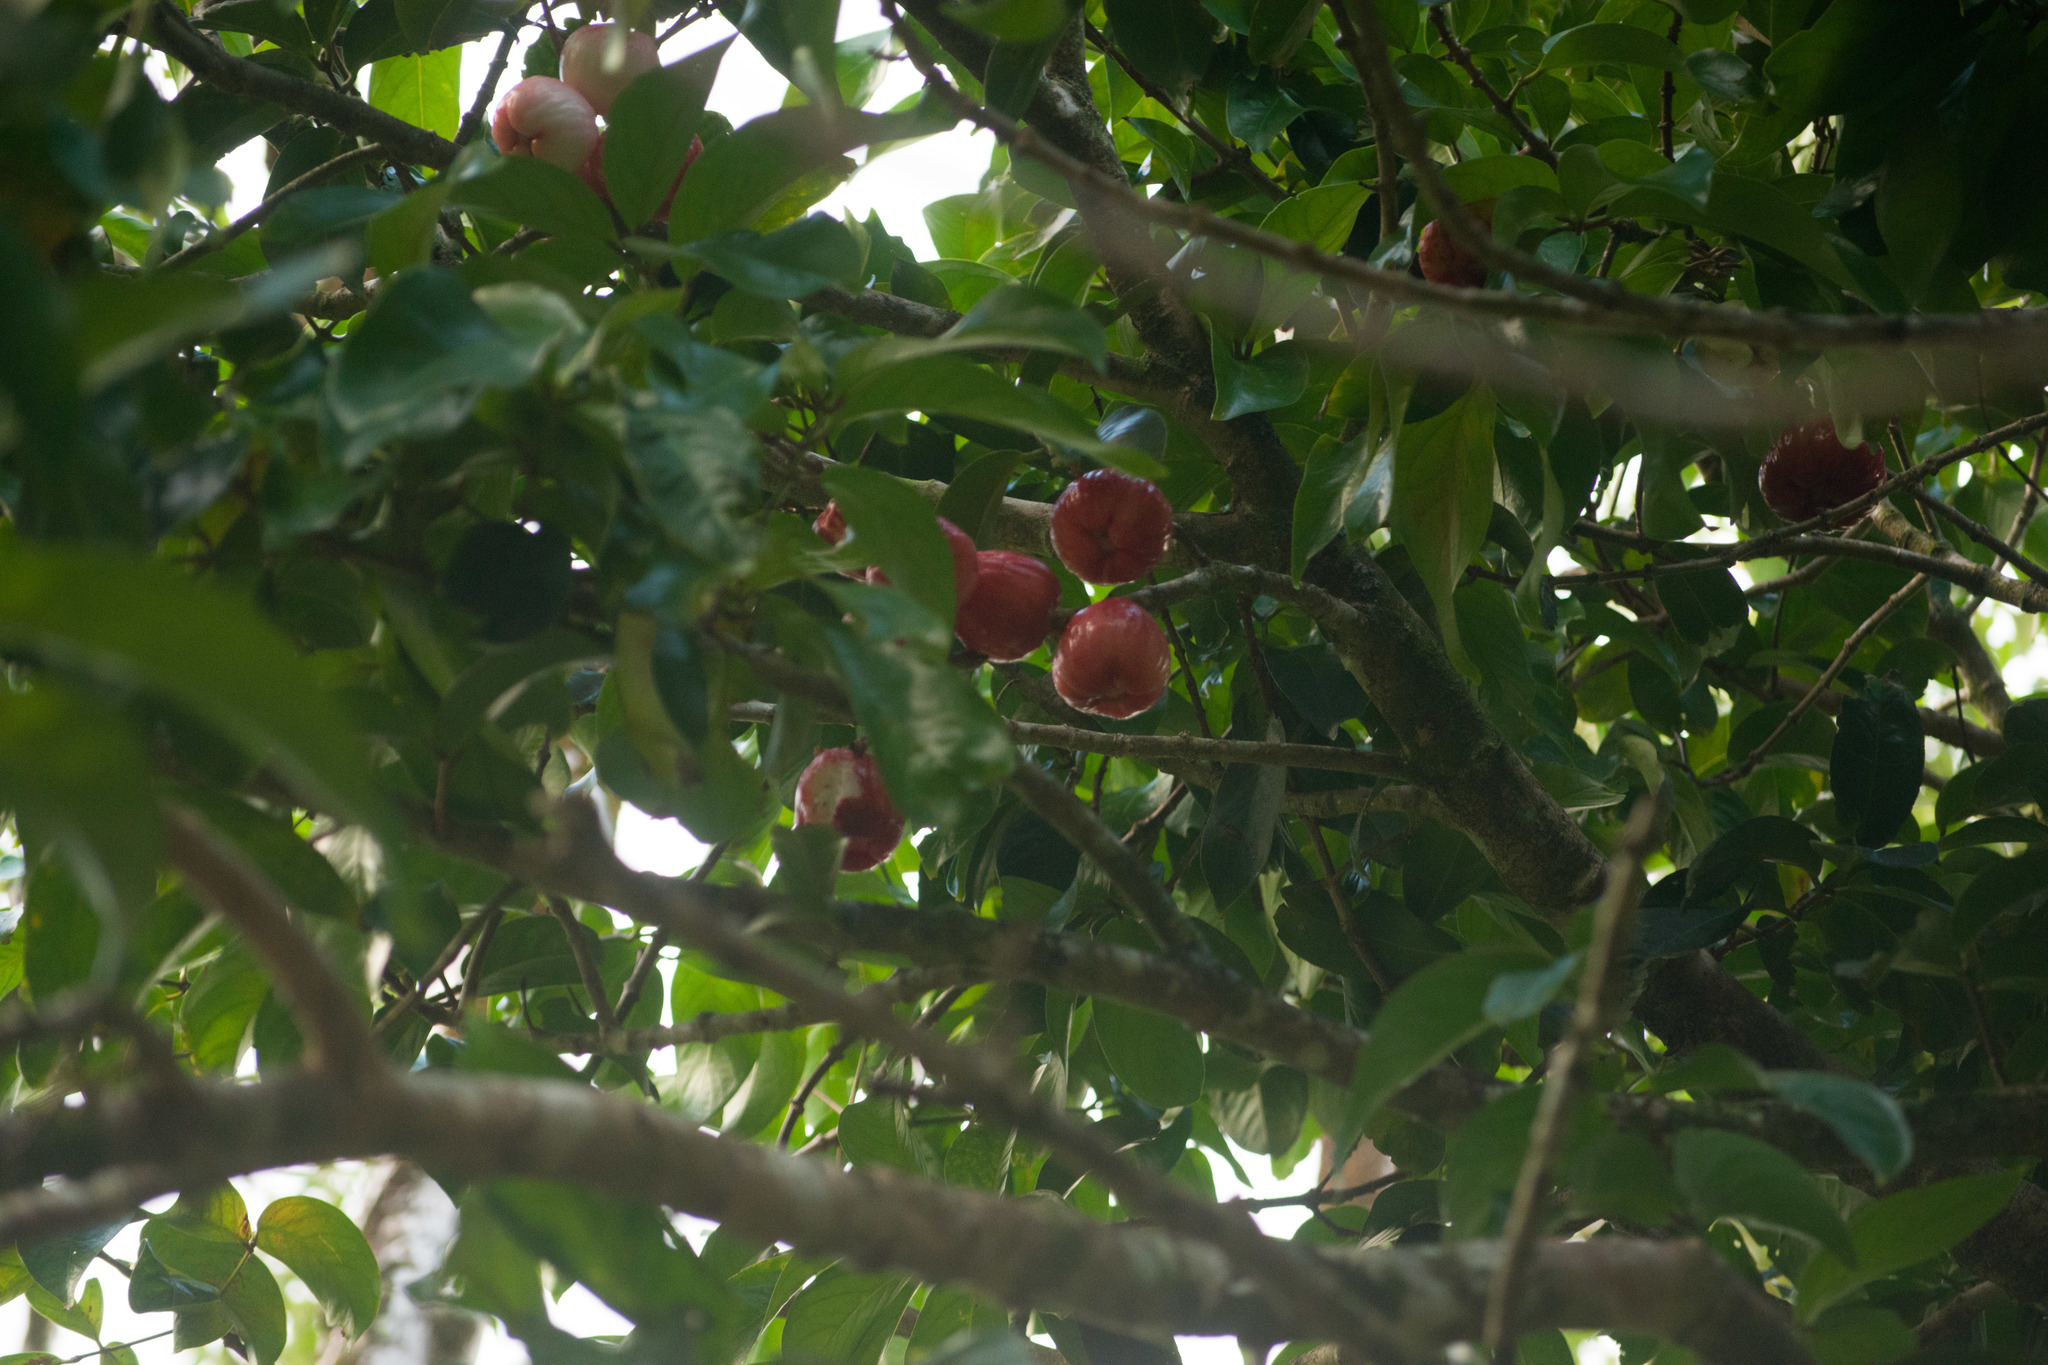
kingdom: Plantae
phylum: Tracheophyta
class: Magnoliopsida
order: Myrtales
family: Myrtaceae
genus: Syzygium
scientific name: Syzygium malaccense
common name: Malaysian apple
